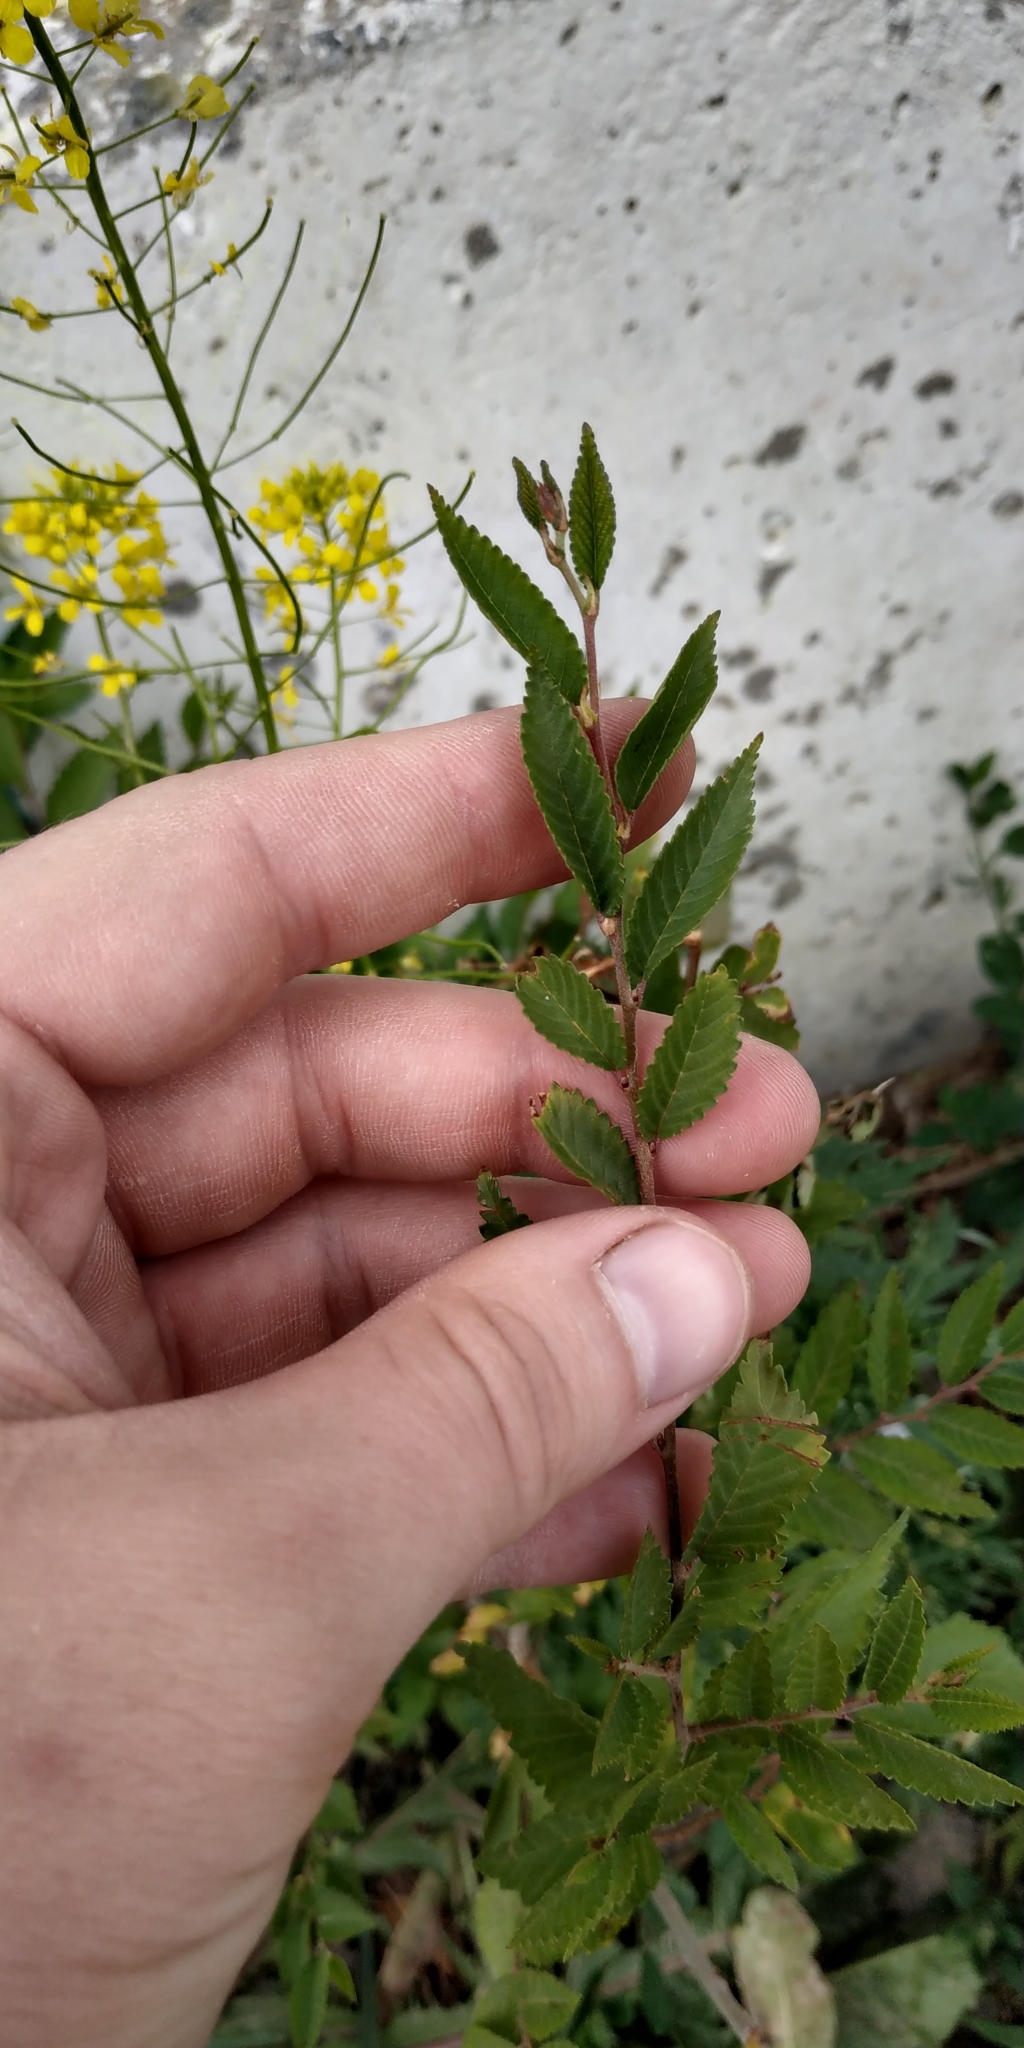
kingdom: Plantae
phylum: Tracheophyta
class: Magnoliopsida
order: Rosales
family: Ulmaceae
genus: Ulmus
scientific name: Ulmus pumila
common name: Siberian elm
